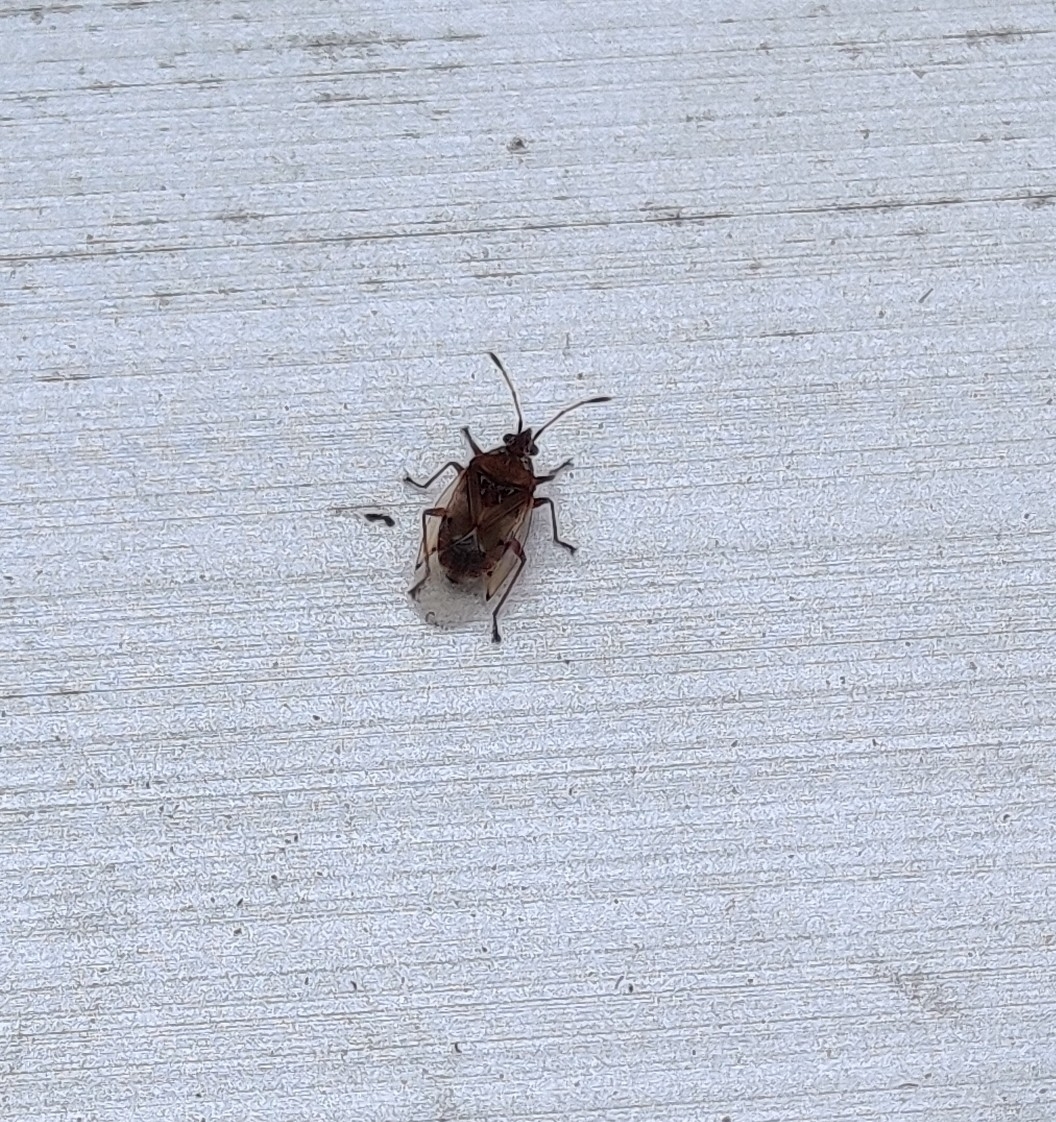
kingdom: Animalia
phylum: Arthropoda
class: Insecta
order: Hemiptera
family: Lygaeidae
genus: Kleidocerys
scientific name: Kleidocerys resedae
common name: Birch catkin bug
